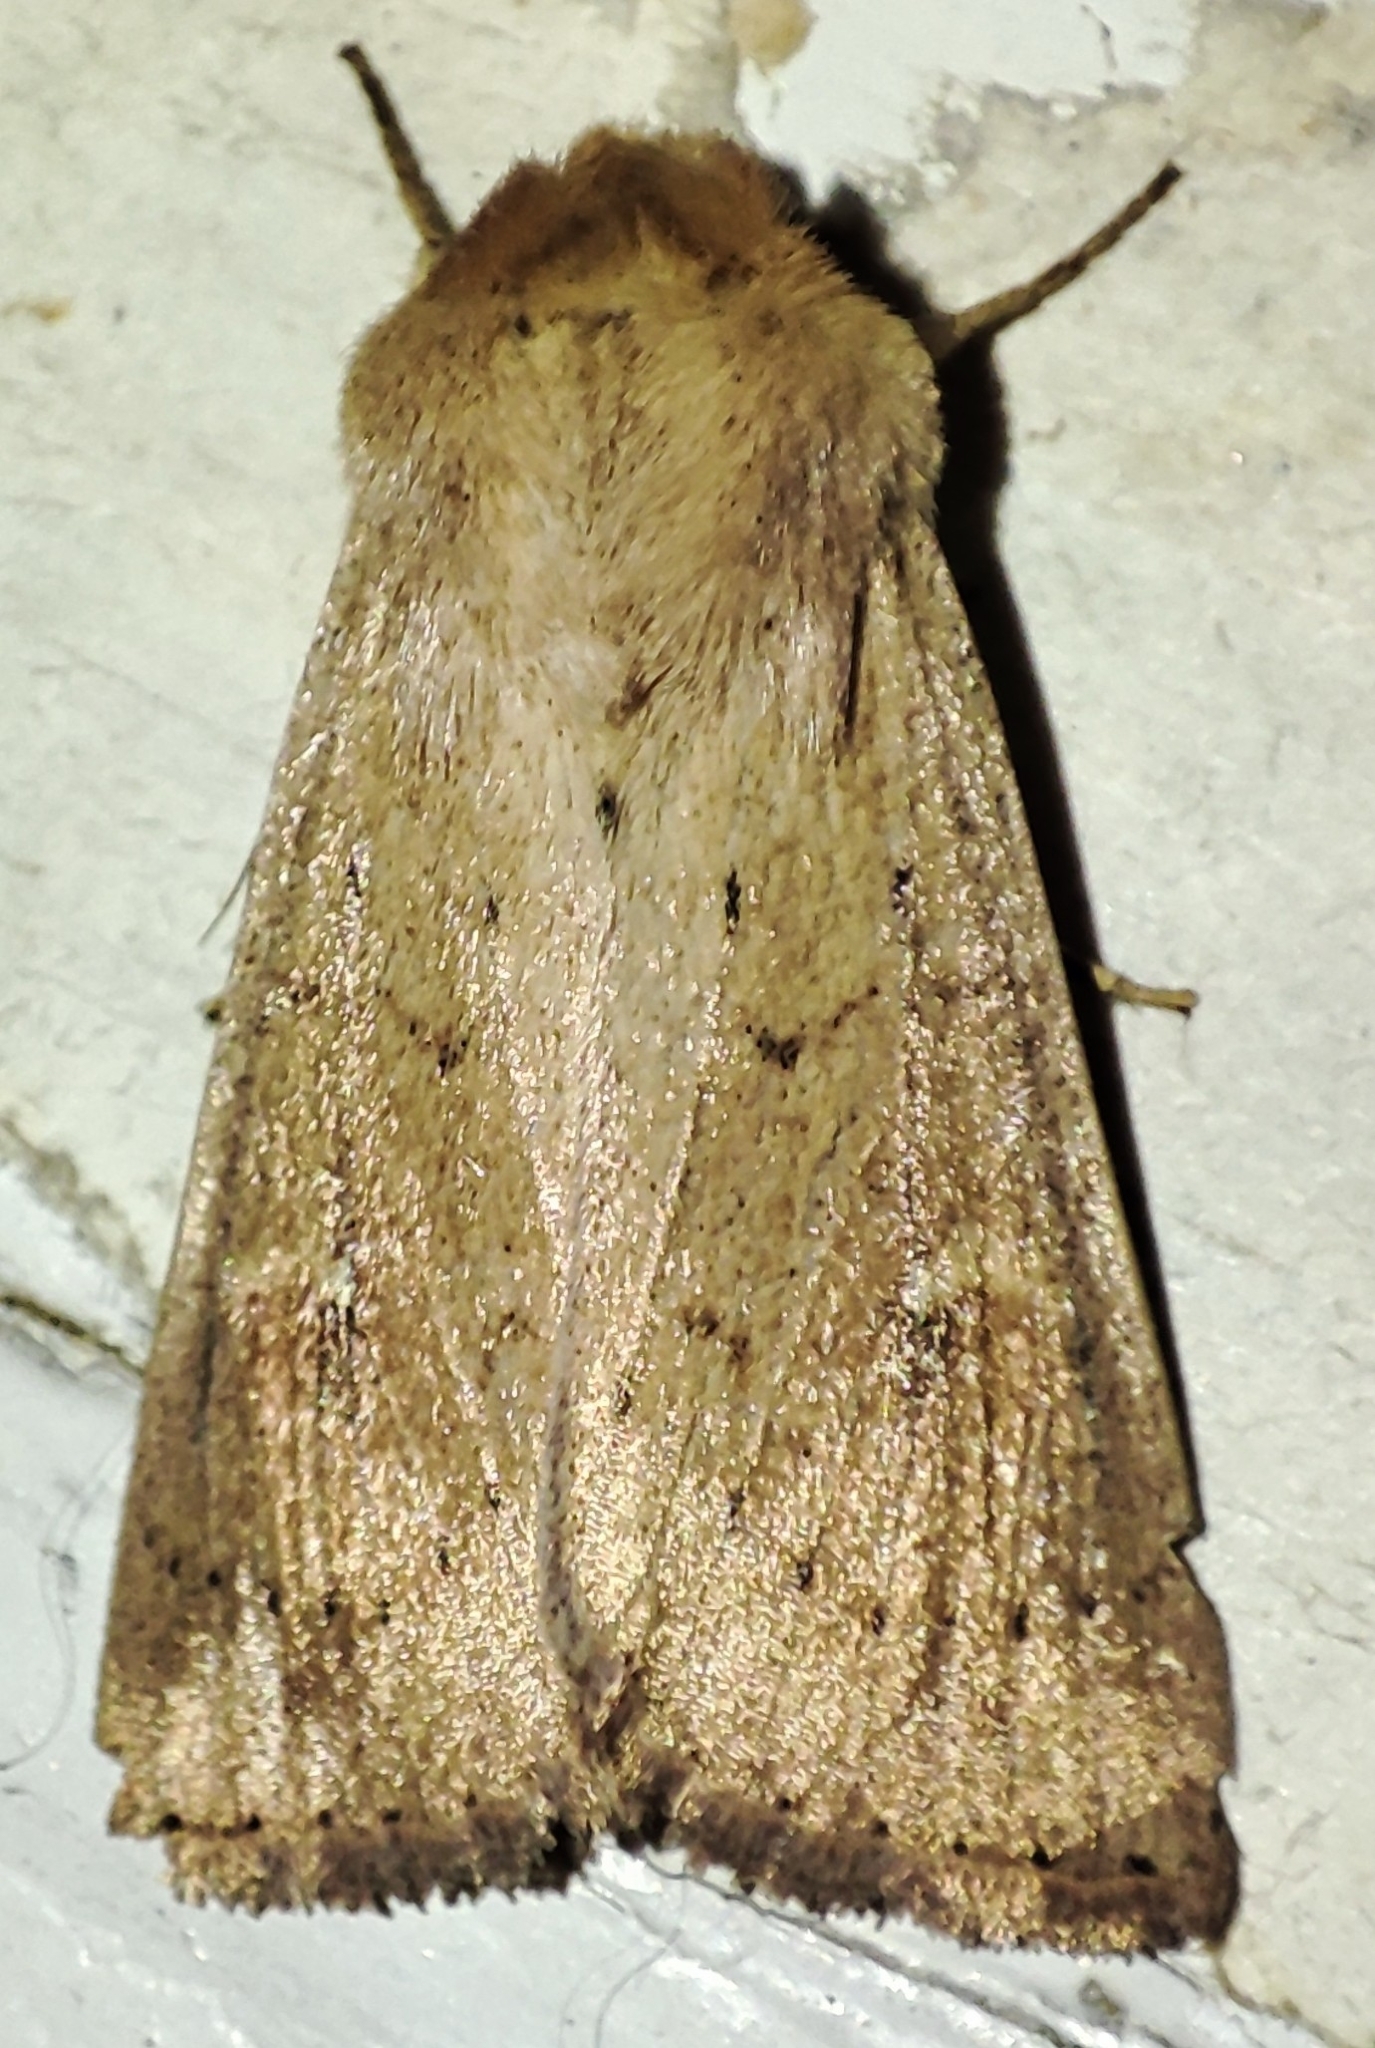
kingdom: Animalia
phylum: Arthropoda
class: Insecta
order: Lepidoptera
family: Noctuidae
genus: Mythimna
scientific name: Mythimna ferrago
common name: Clay
